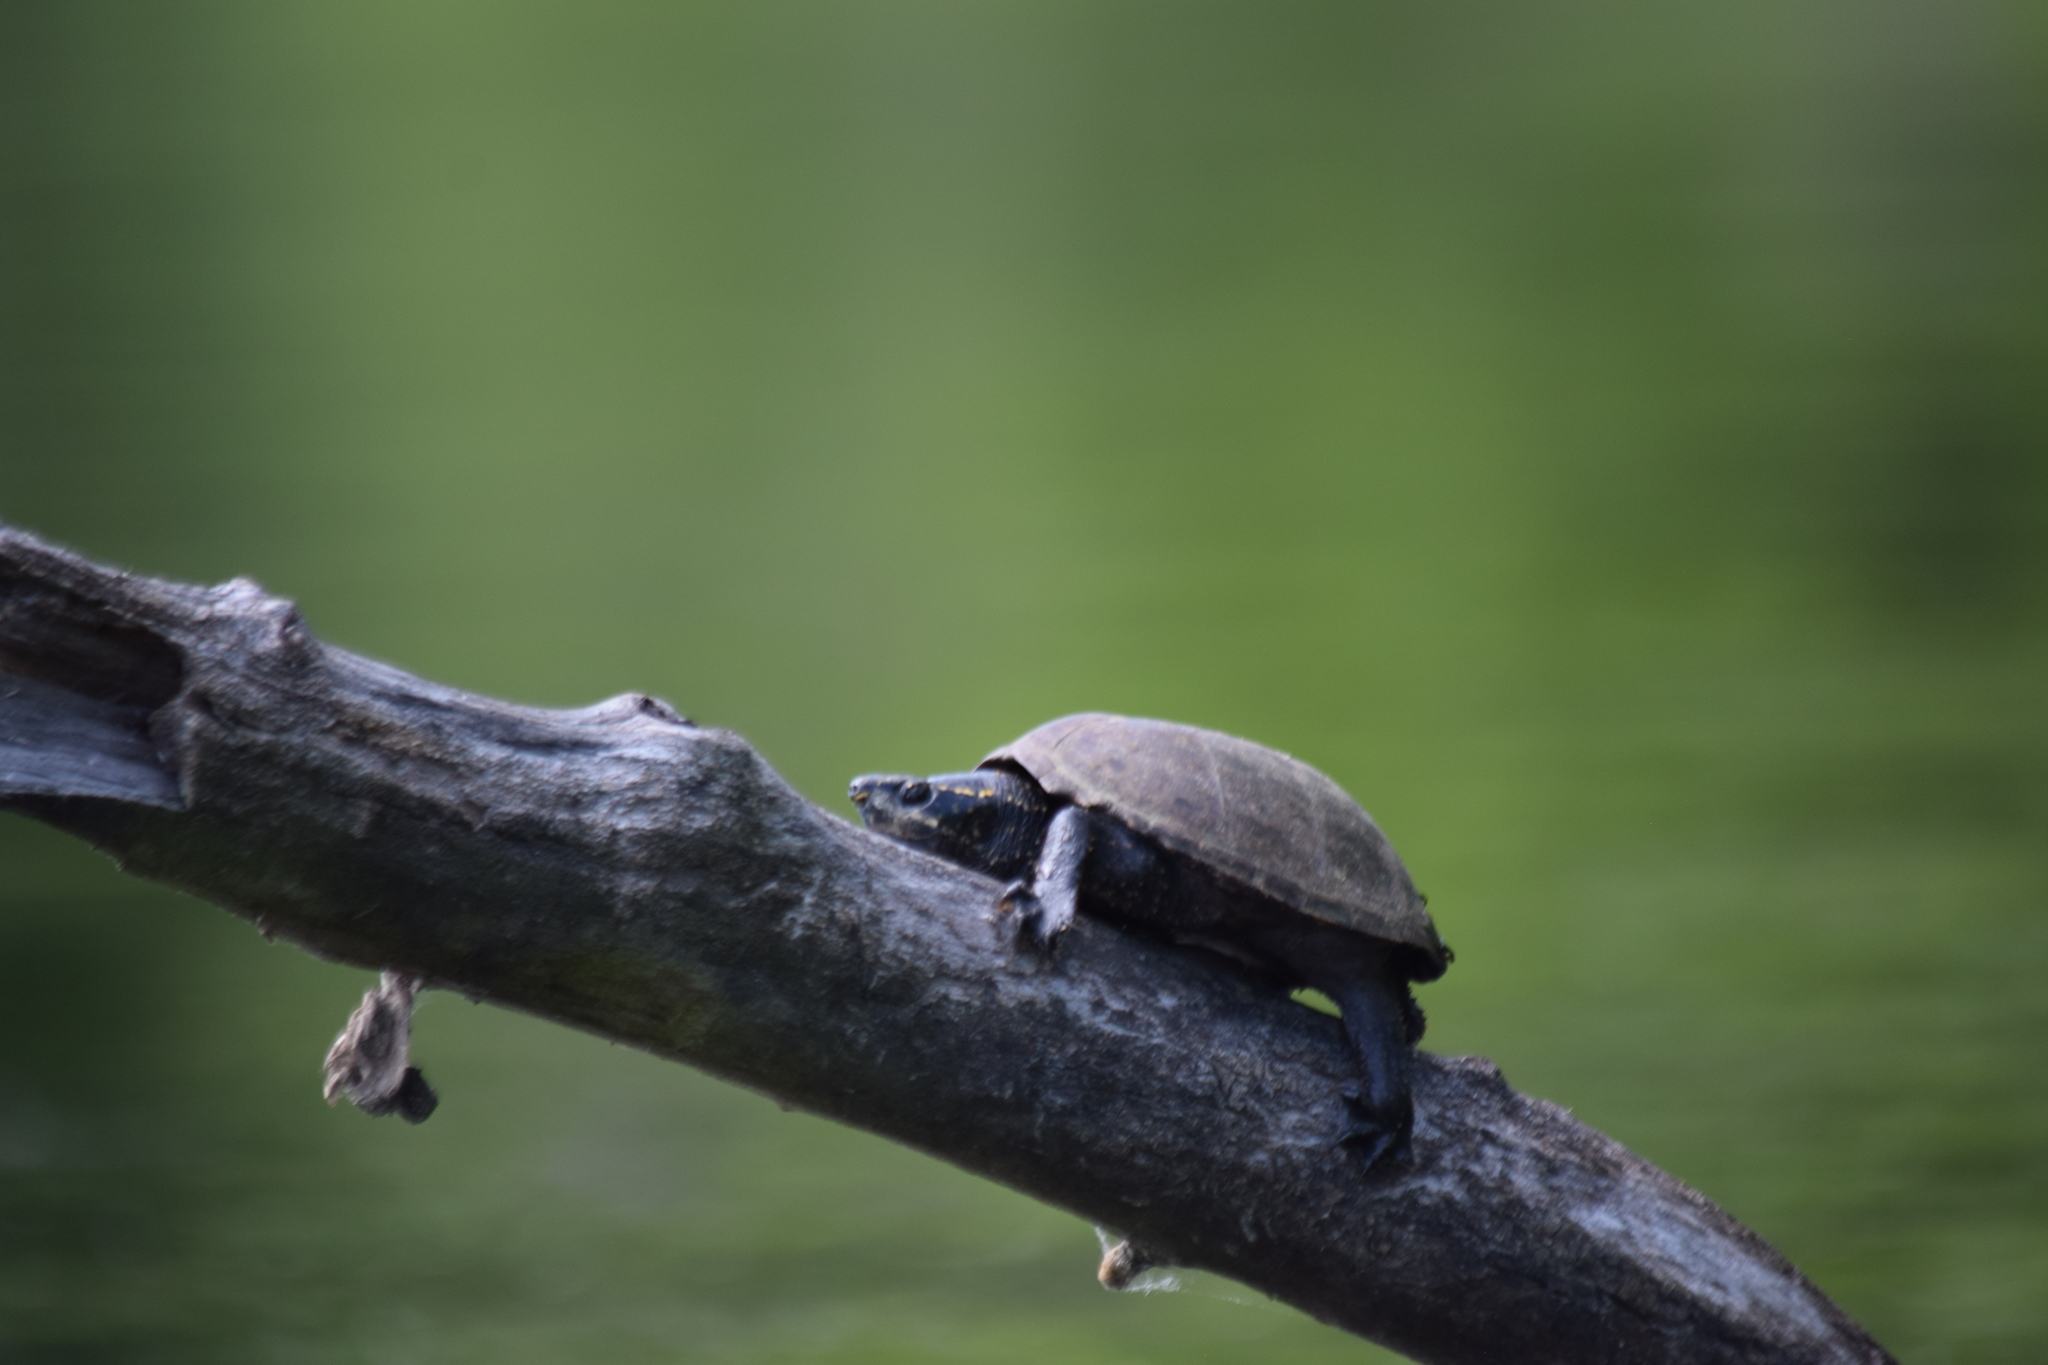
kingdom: Animalia
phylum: Chordata
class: Testudines
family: Kinosternidae
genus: Sternotherus
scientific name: Sternotherus odoratus
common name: Common musk turtle
